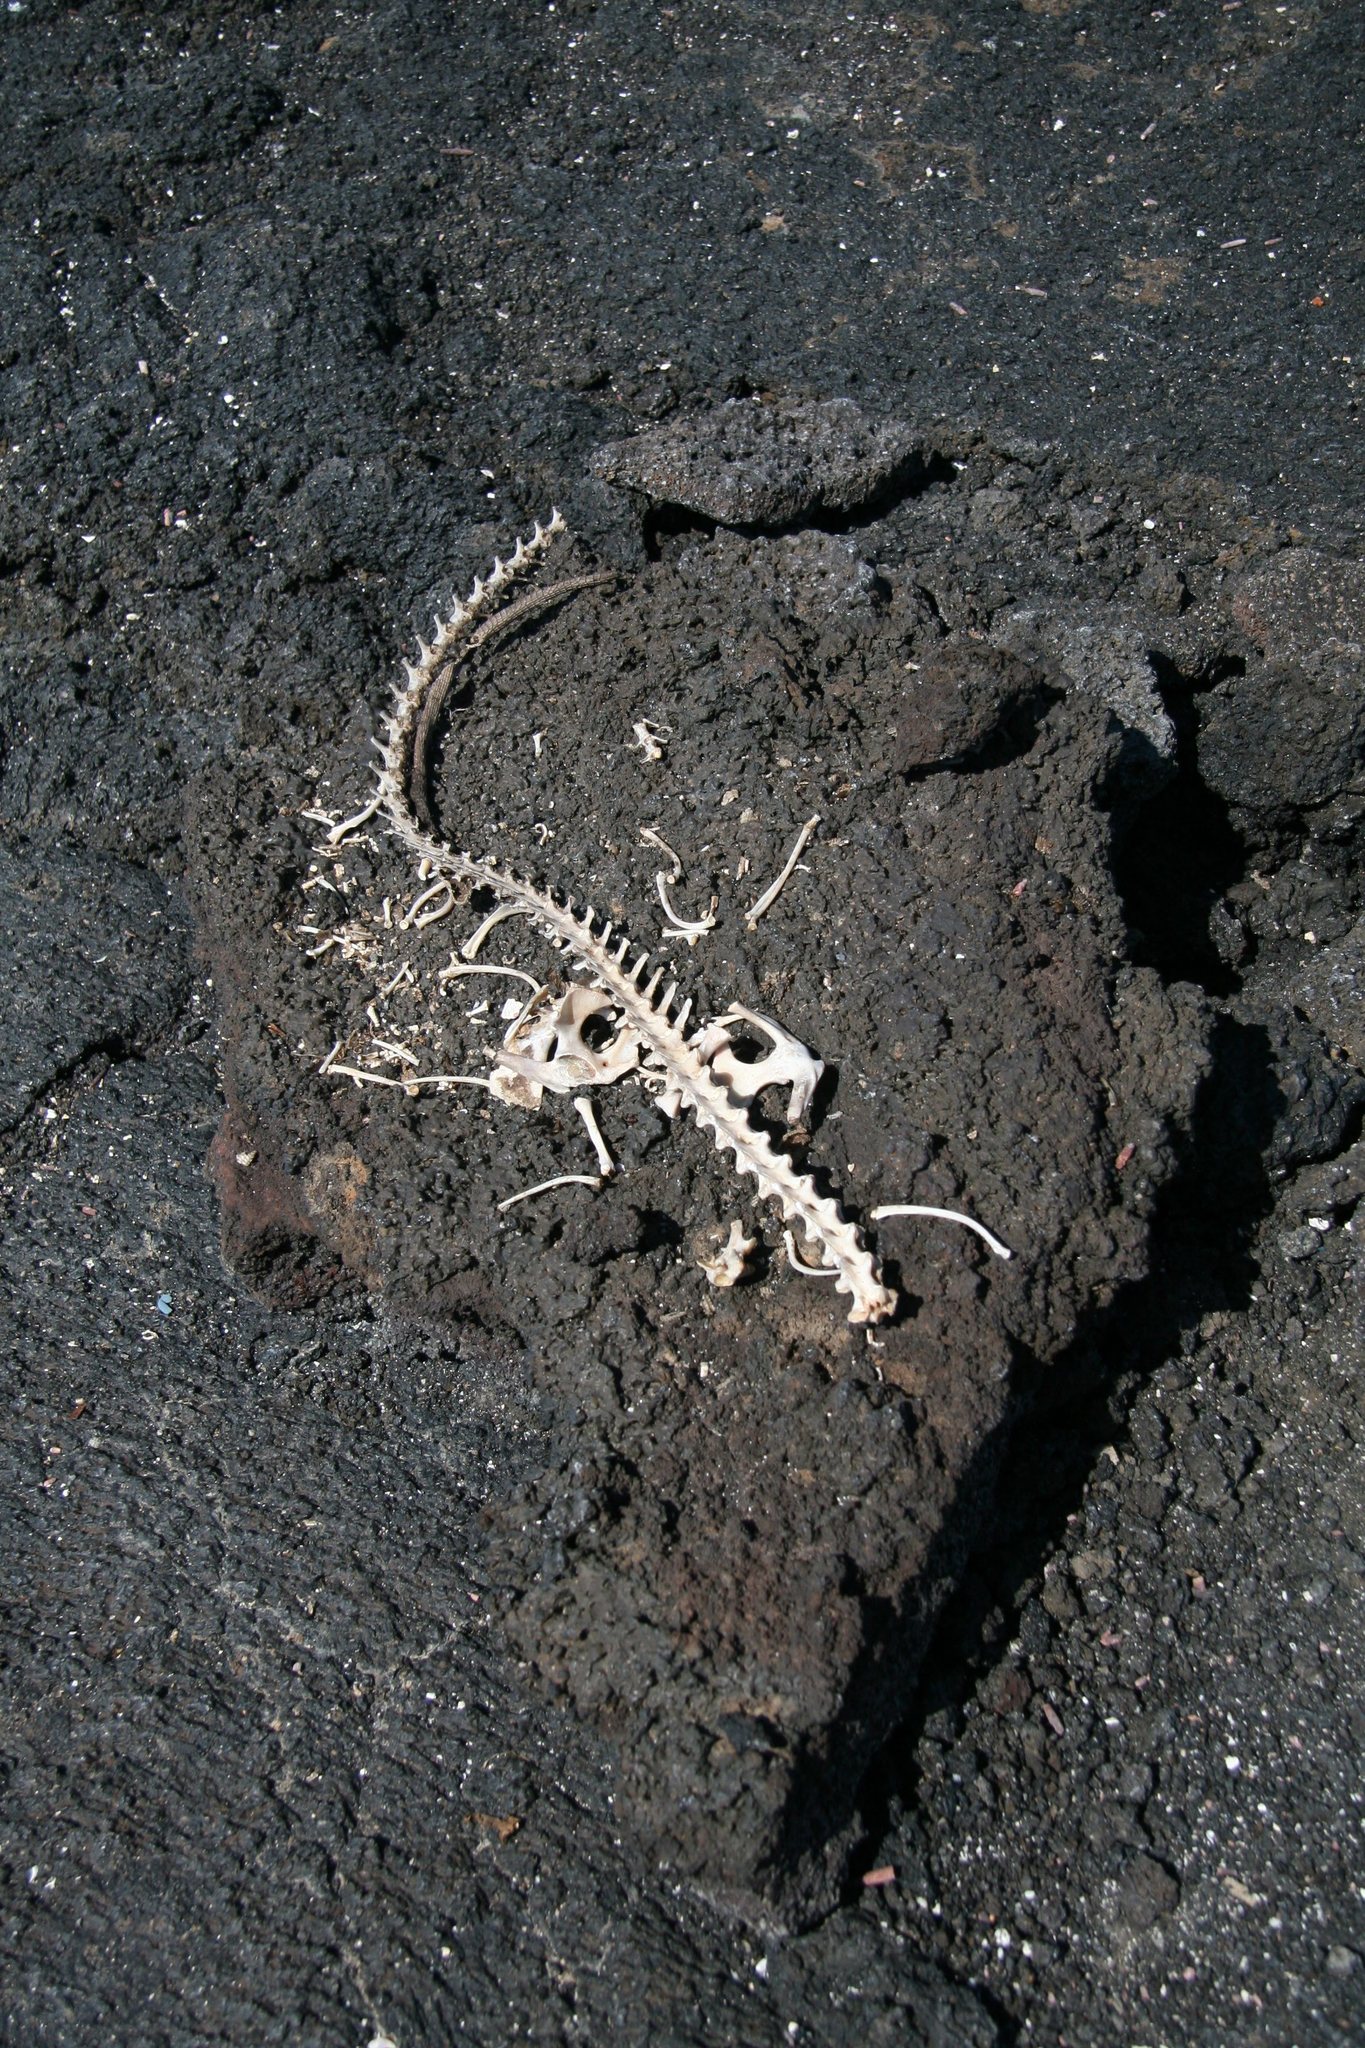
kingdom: Animalia
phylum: Chordata
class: Squamata
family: Iguanidae
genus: Conolophus
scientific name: Conolophus subcristatus
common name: Galapagos land iguana
